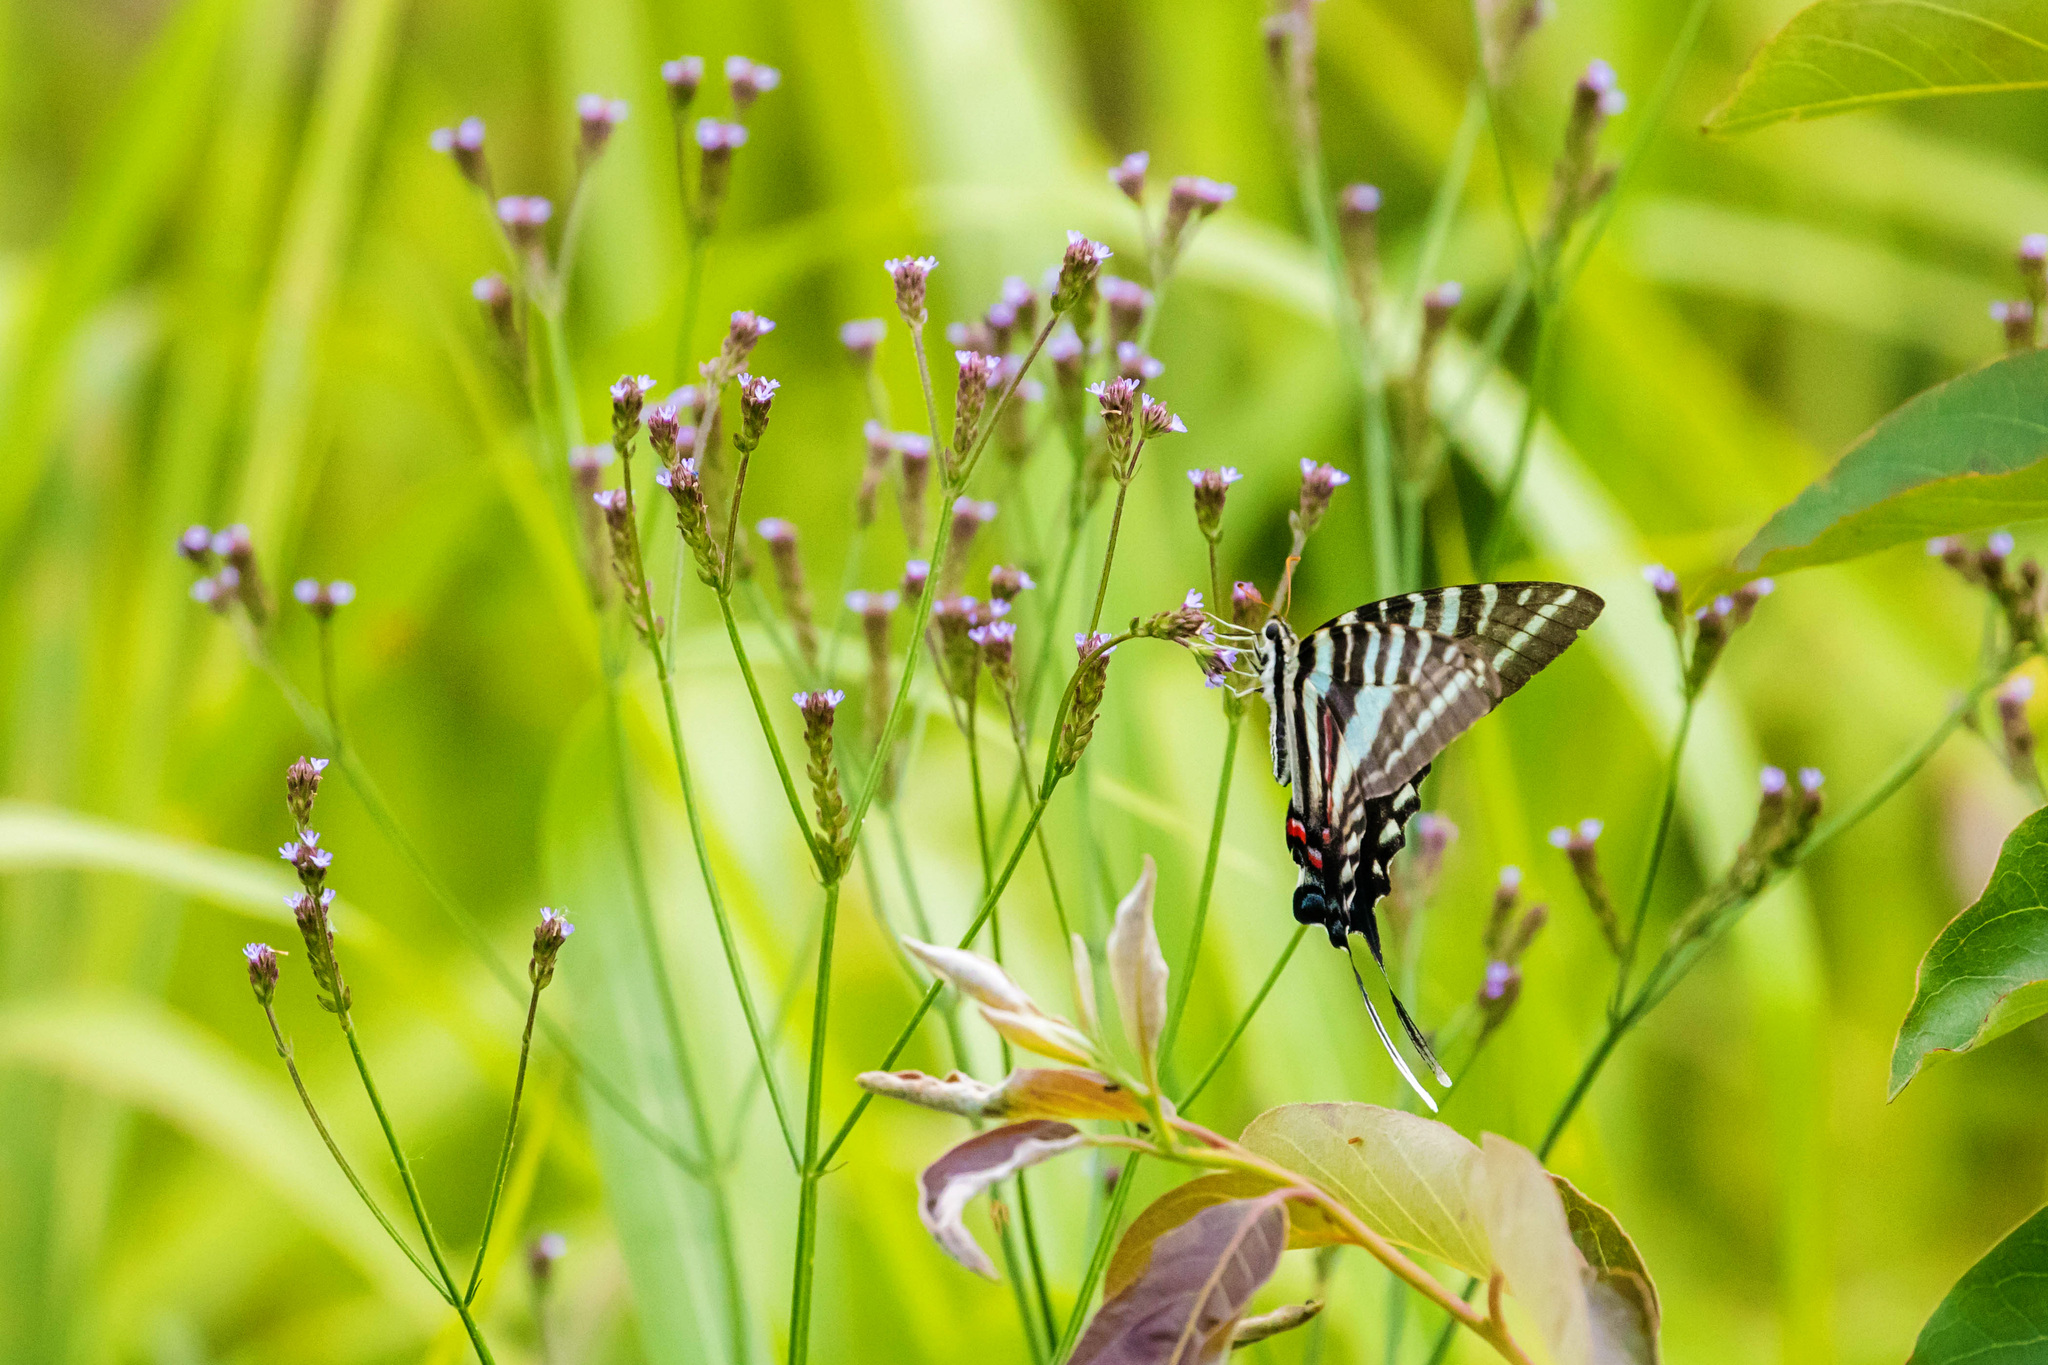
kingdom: Animalia
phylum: Arthropoda
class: Insecta
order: Lepidoptera
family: Papilionidae
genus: Protographium
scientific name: Protographium marcellus
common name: Zebra swallowtail
